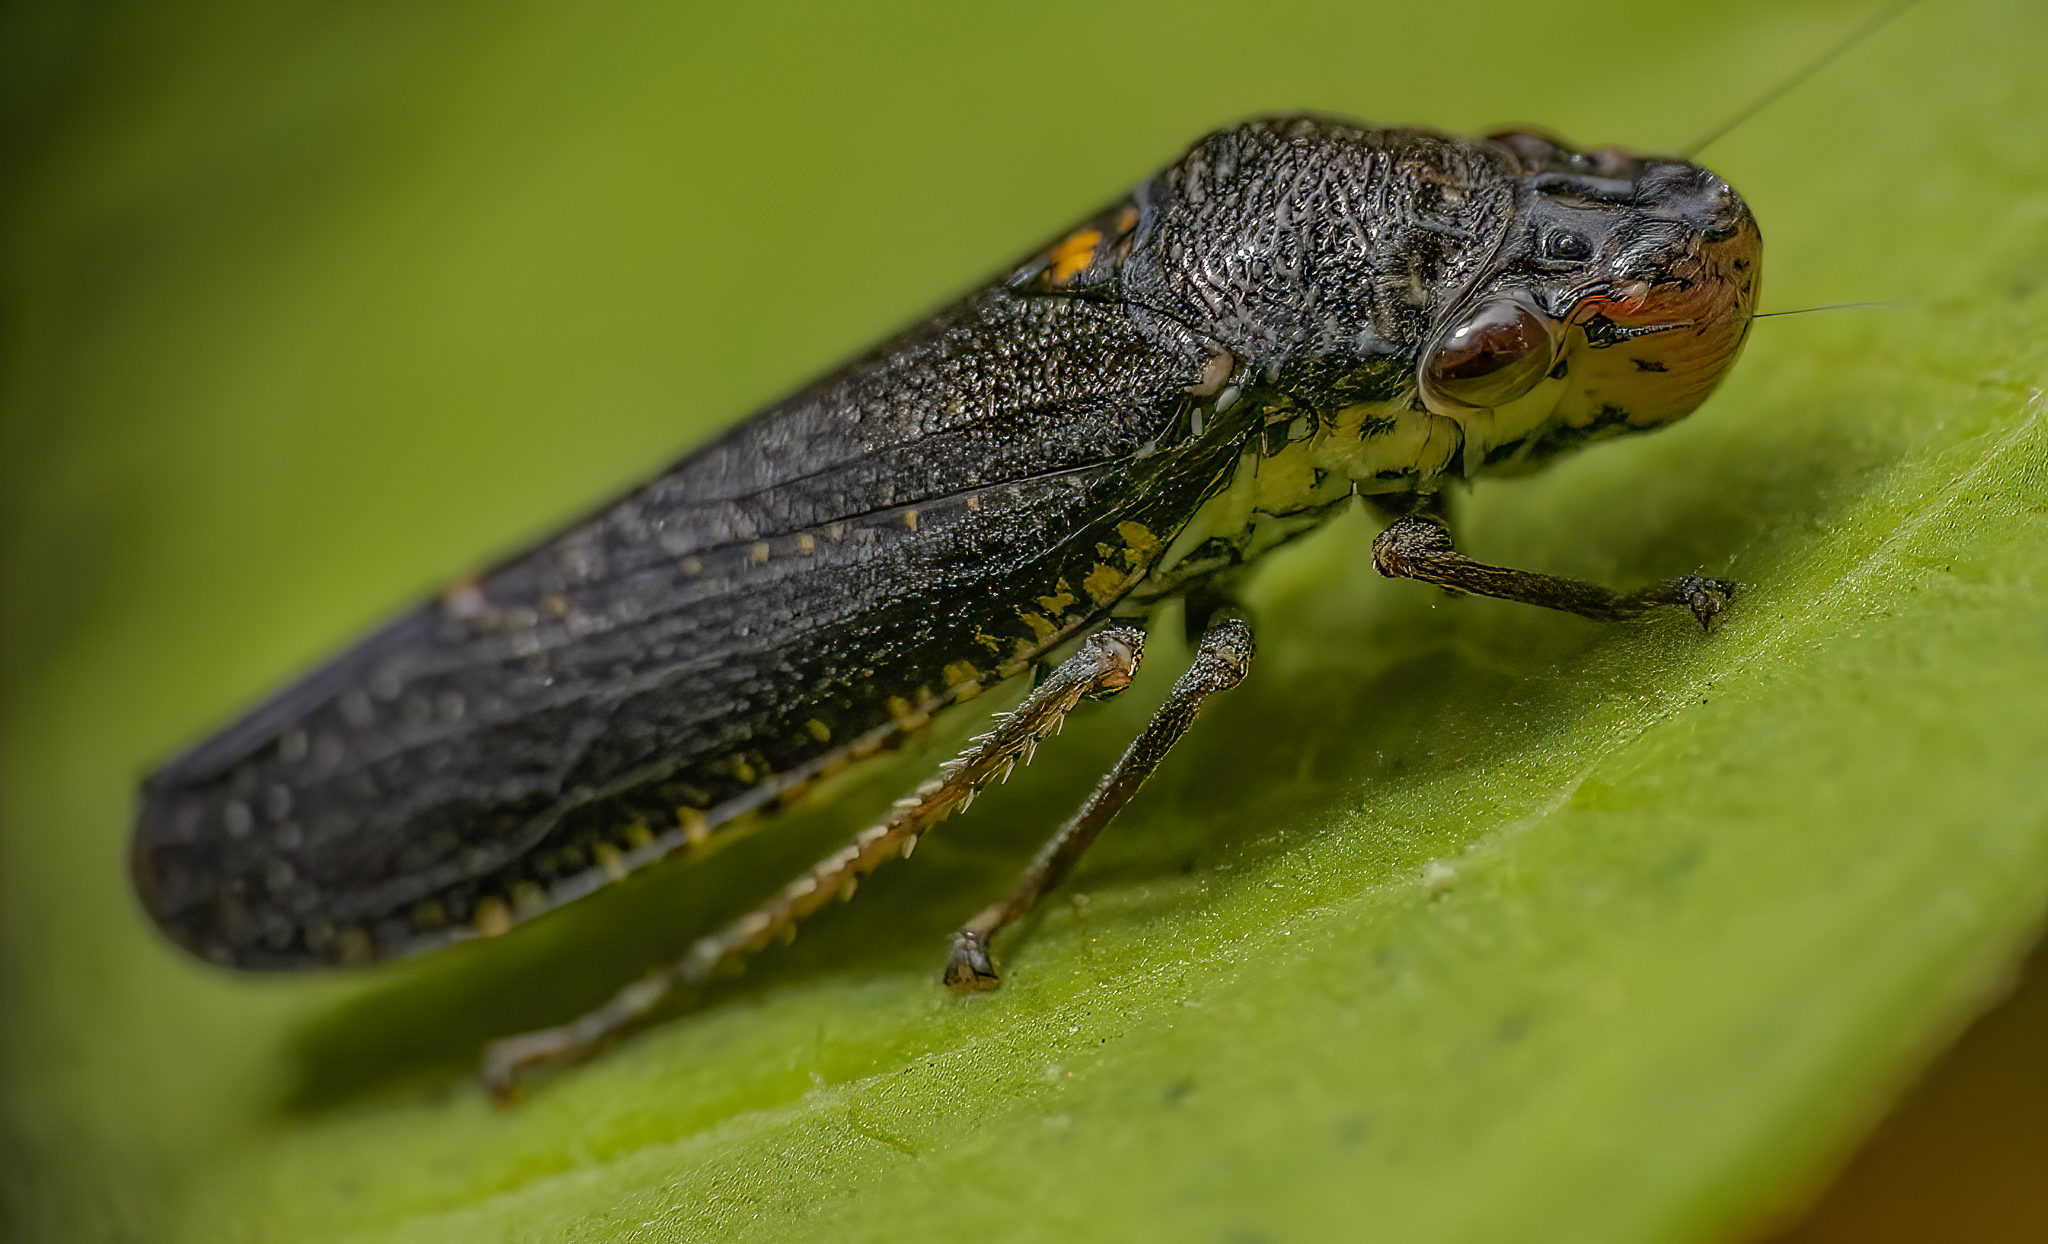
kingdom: Animalia
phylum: Arthropoda
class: Insecta
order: Hemiptera
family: Cicadellidae
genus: Paraulacizes
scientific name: Paraulacizes irrorata
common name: Speckled sharpshooter
